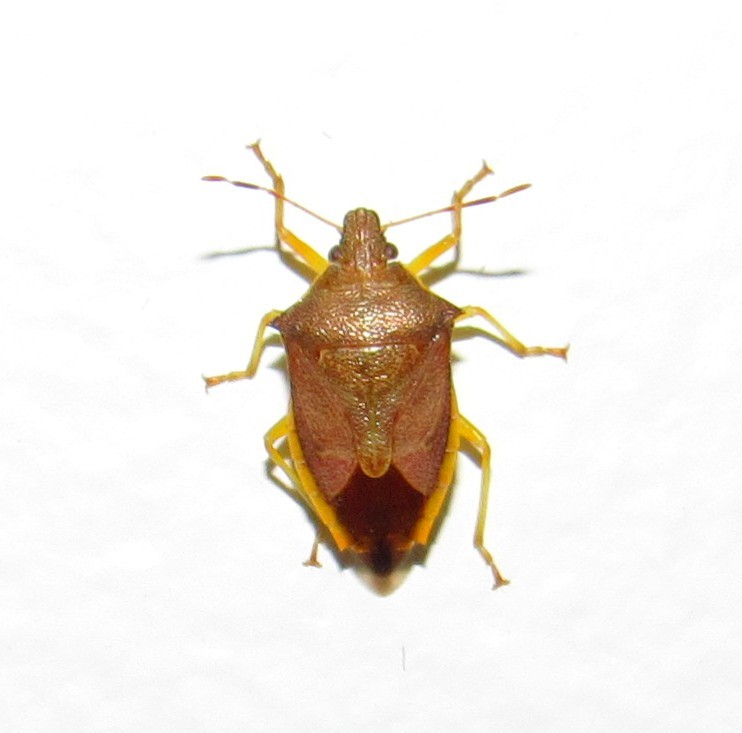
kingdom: Animalia
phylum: Arthropoda
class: Insecta
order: Hemiptera
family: Pentatomidae
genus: Supputius
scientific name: Supputius
